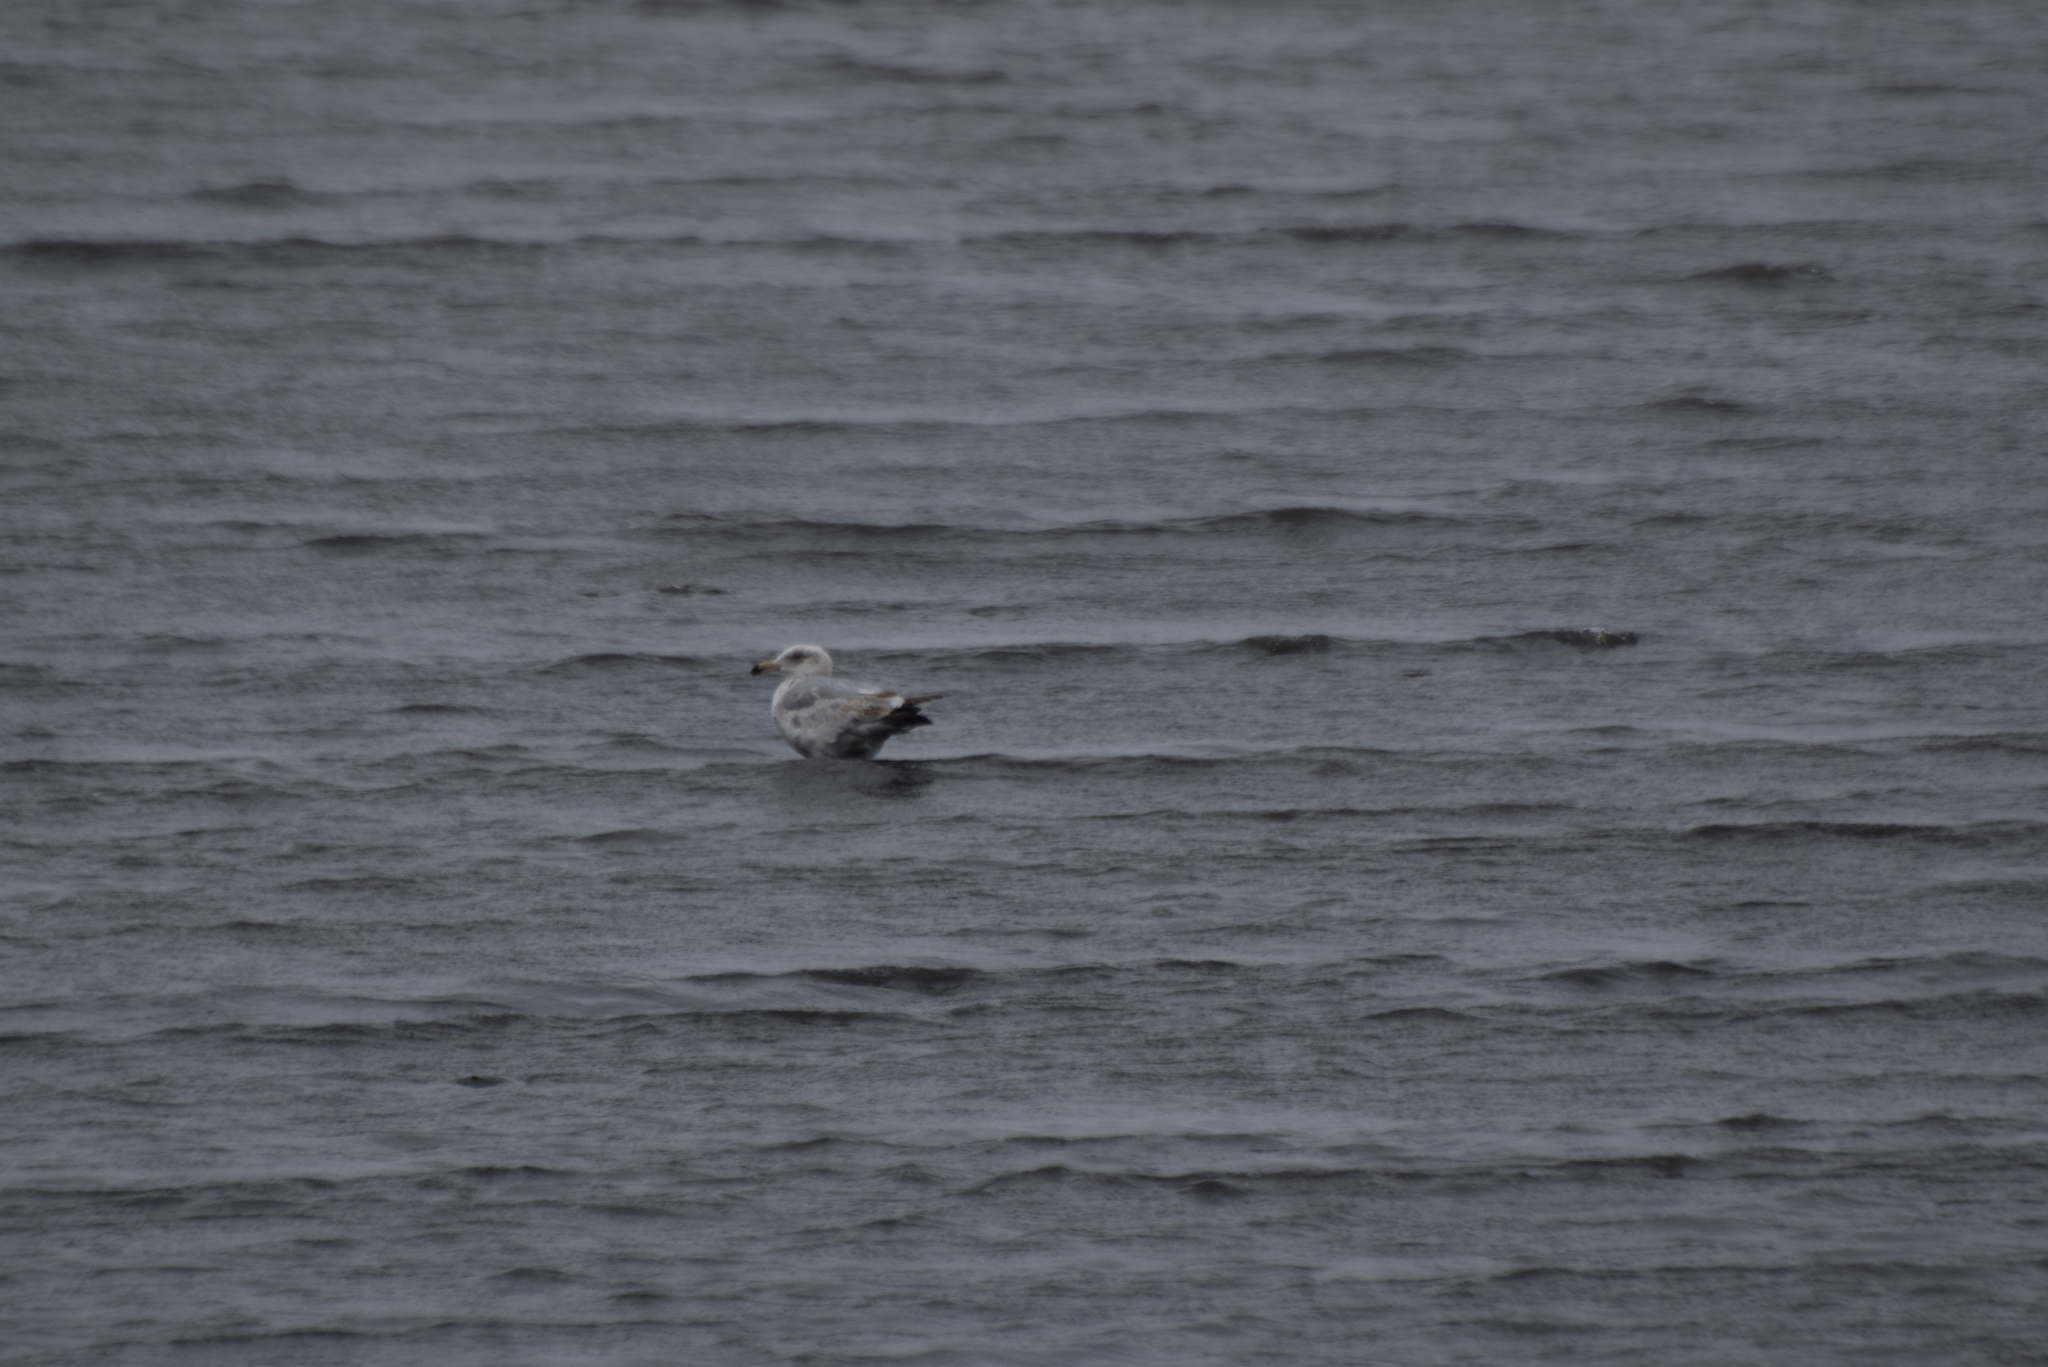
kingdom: Animalia
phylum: Chordata
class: Aves
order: Charadriiformes
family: Laridae
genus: Larus
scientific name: Larus argentatus
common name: Herring gull
